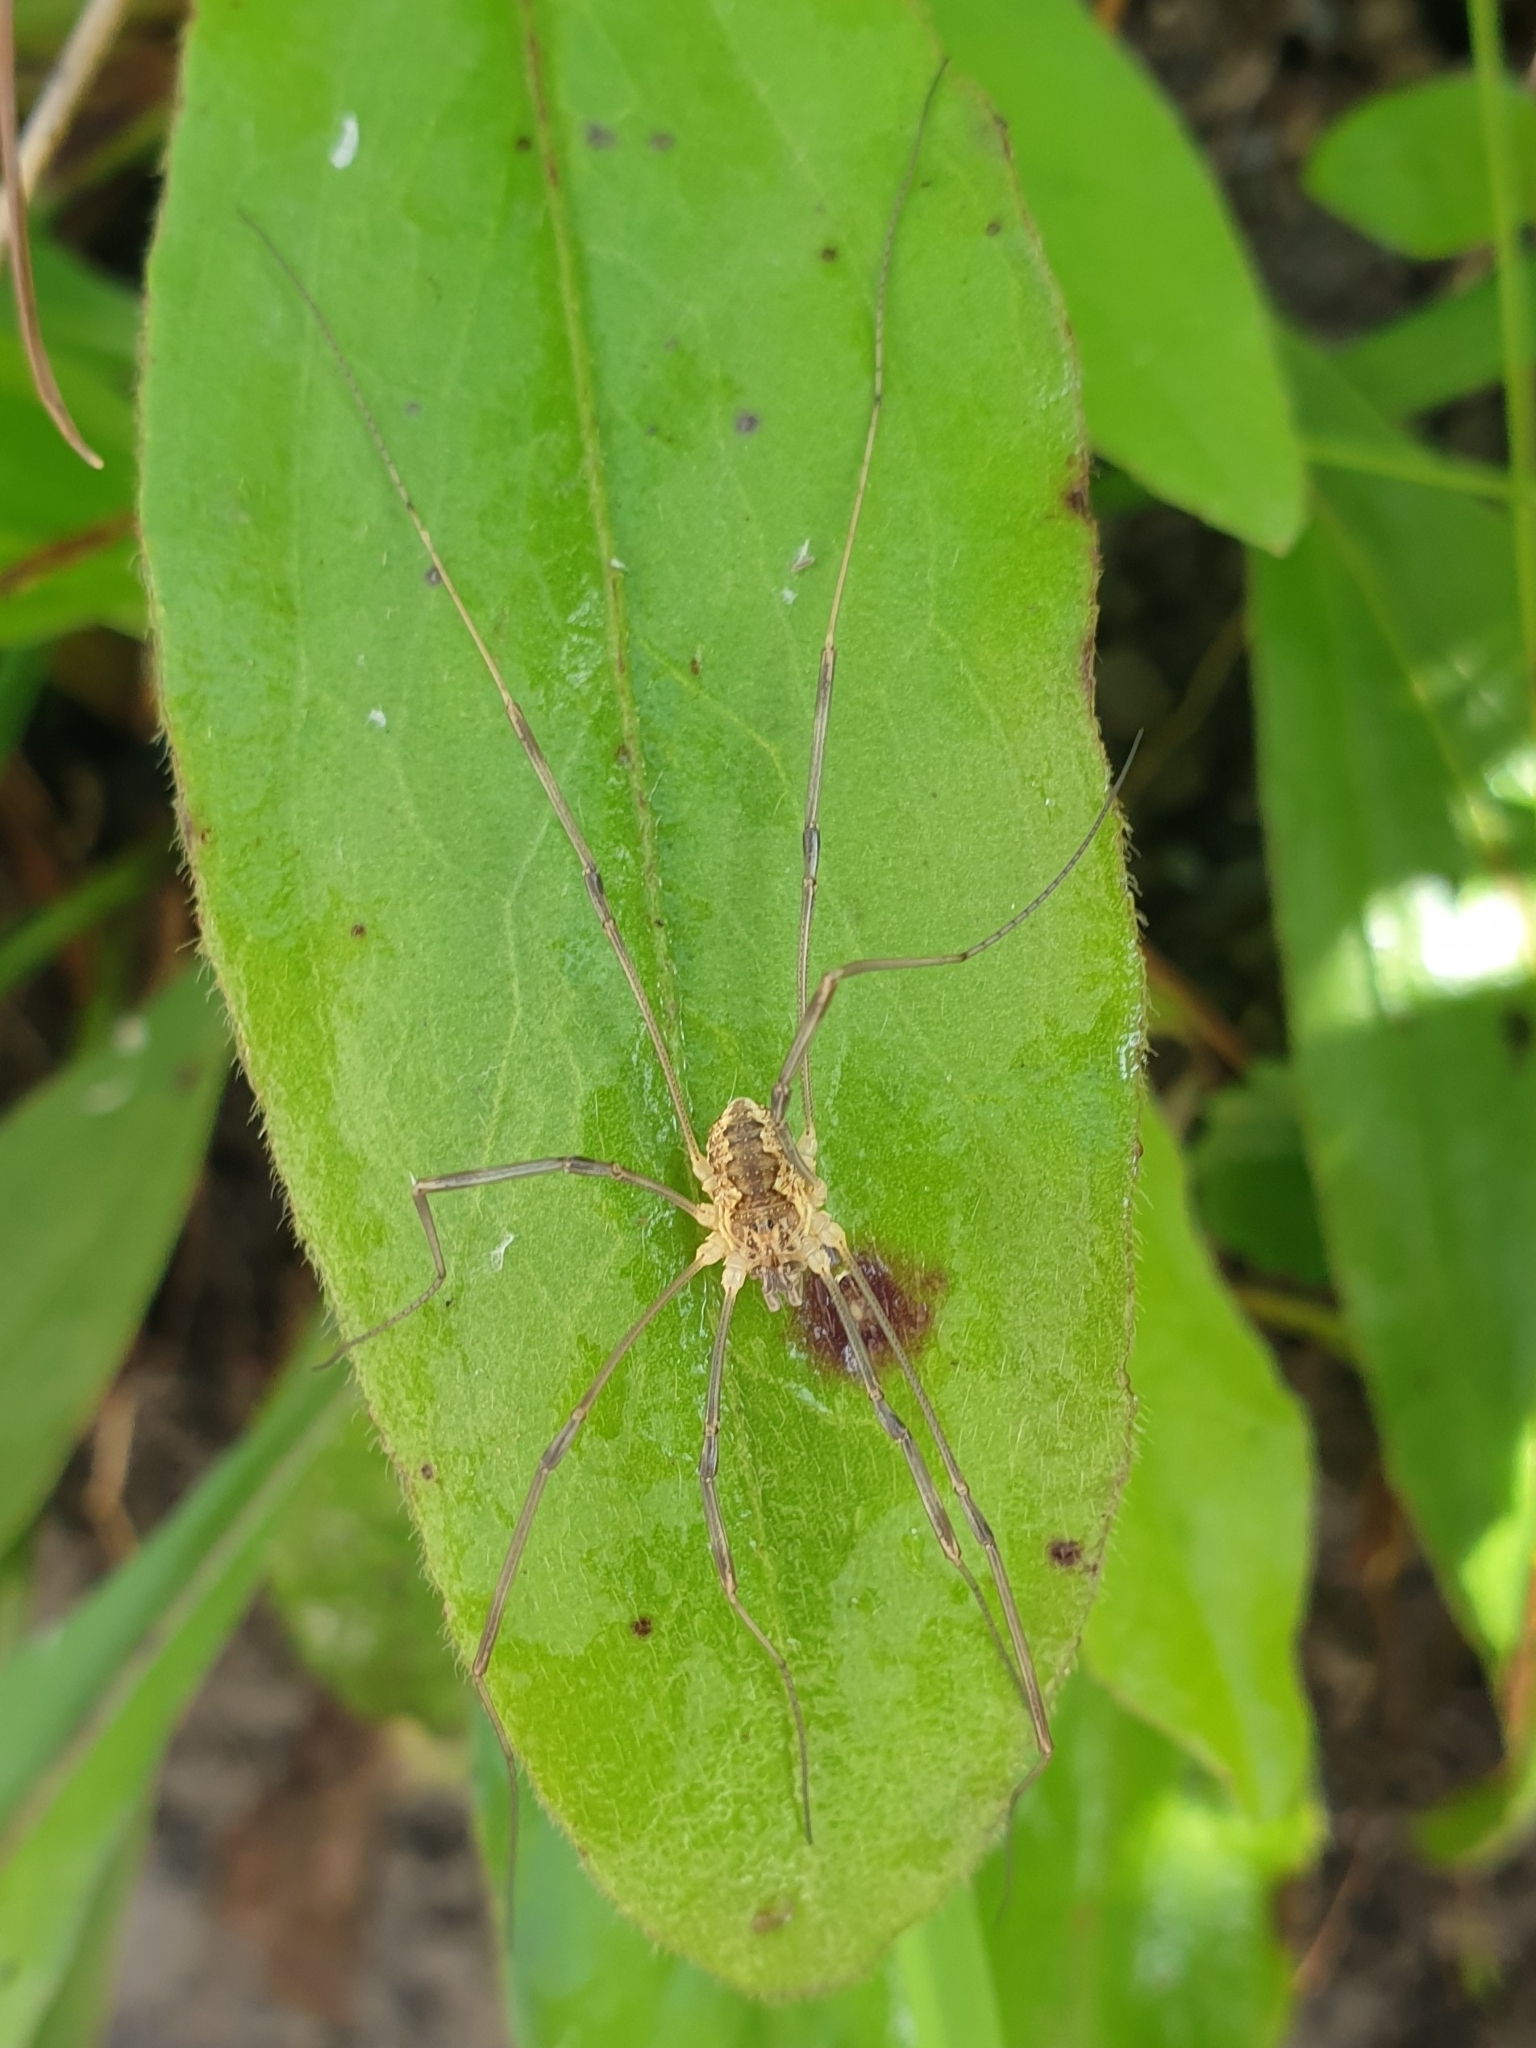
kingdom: Animalia
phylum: Arthropoda
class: Arachnida
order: Opiliones
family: Phalangiidae
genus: Mitopus
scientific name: Mitopus morio
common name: Saddleback harvestman
